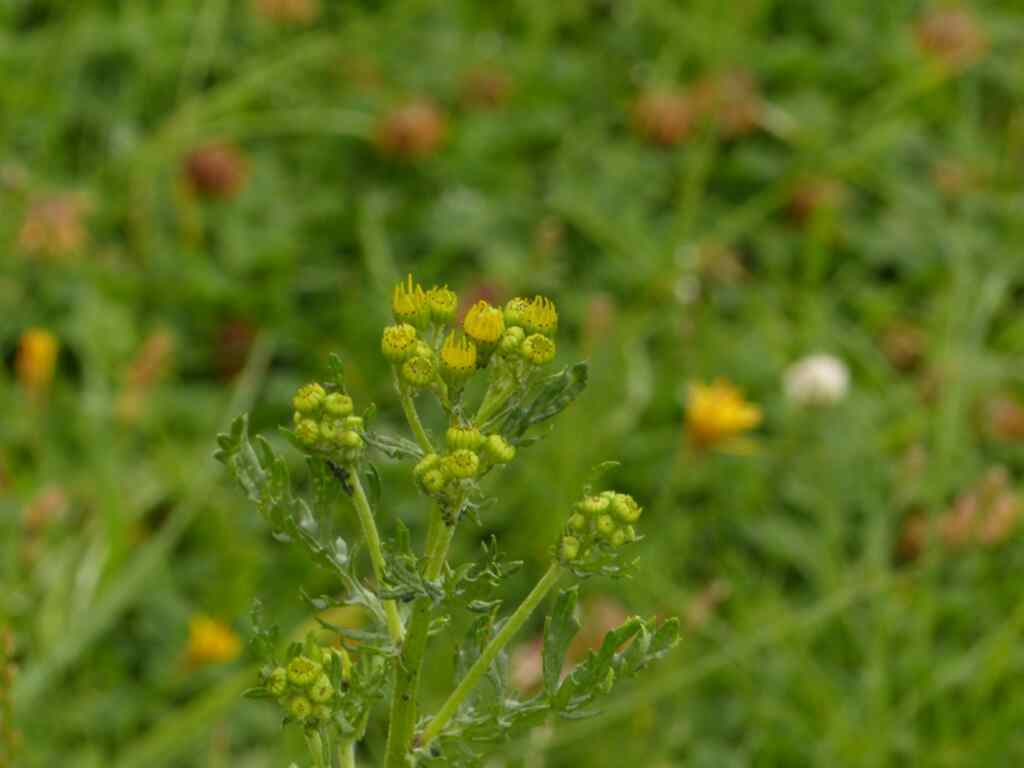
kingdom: Plantae
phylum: Tracheophyta
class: Magnoliopsida
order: Asterales
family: Asteraceae
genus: Jacobaea
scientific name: Jacobaea vulgaris
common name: Stinking willie
